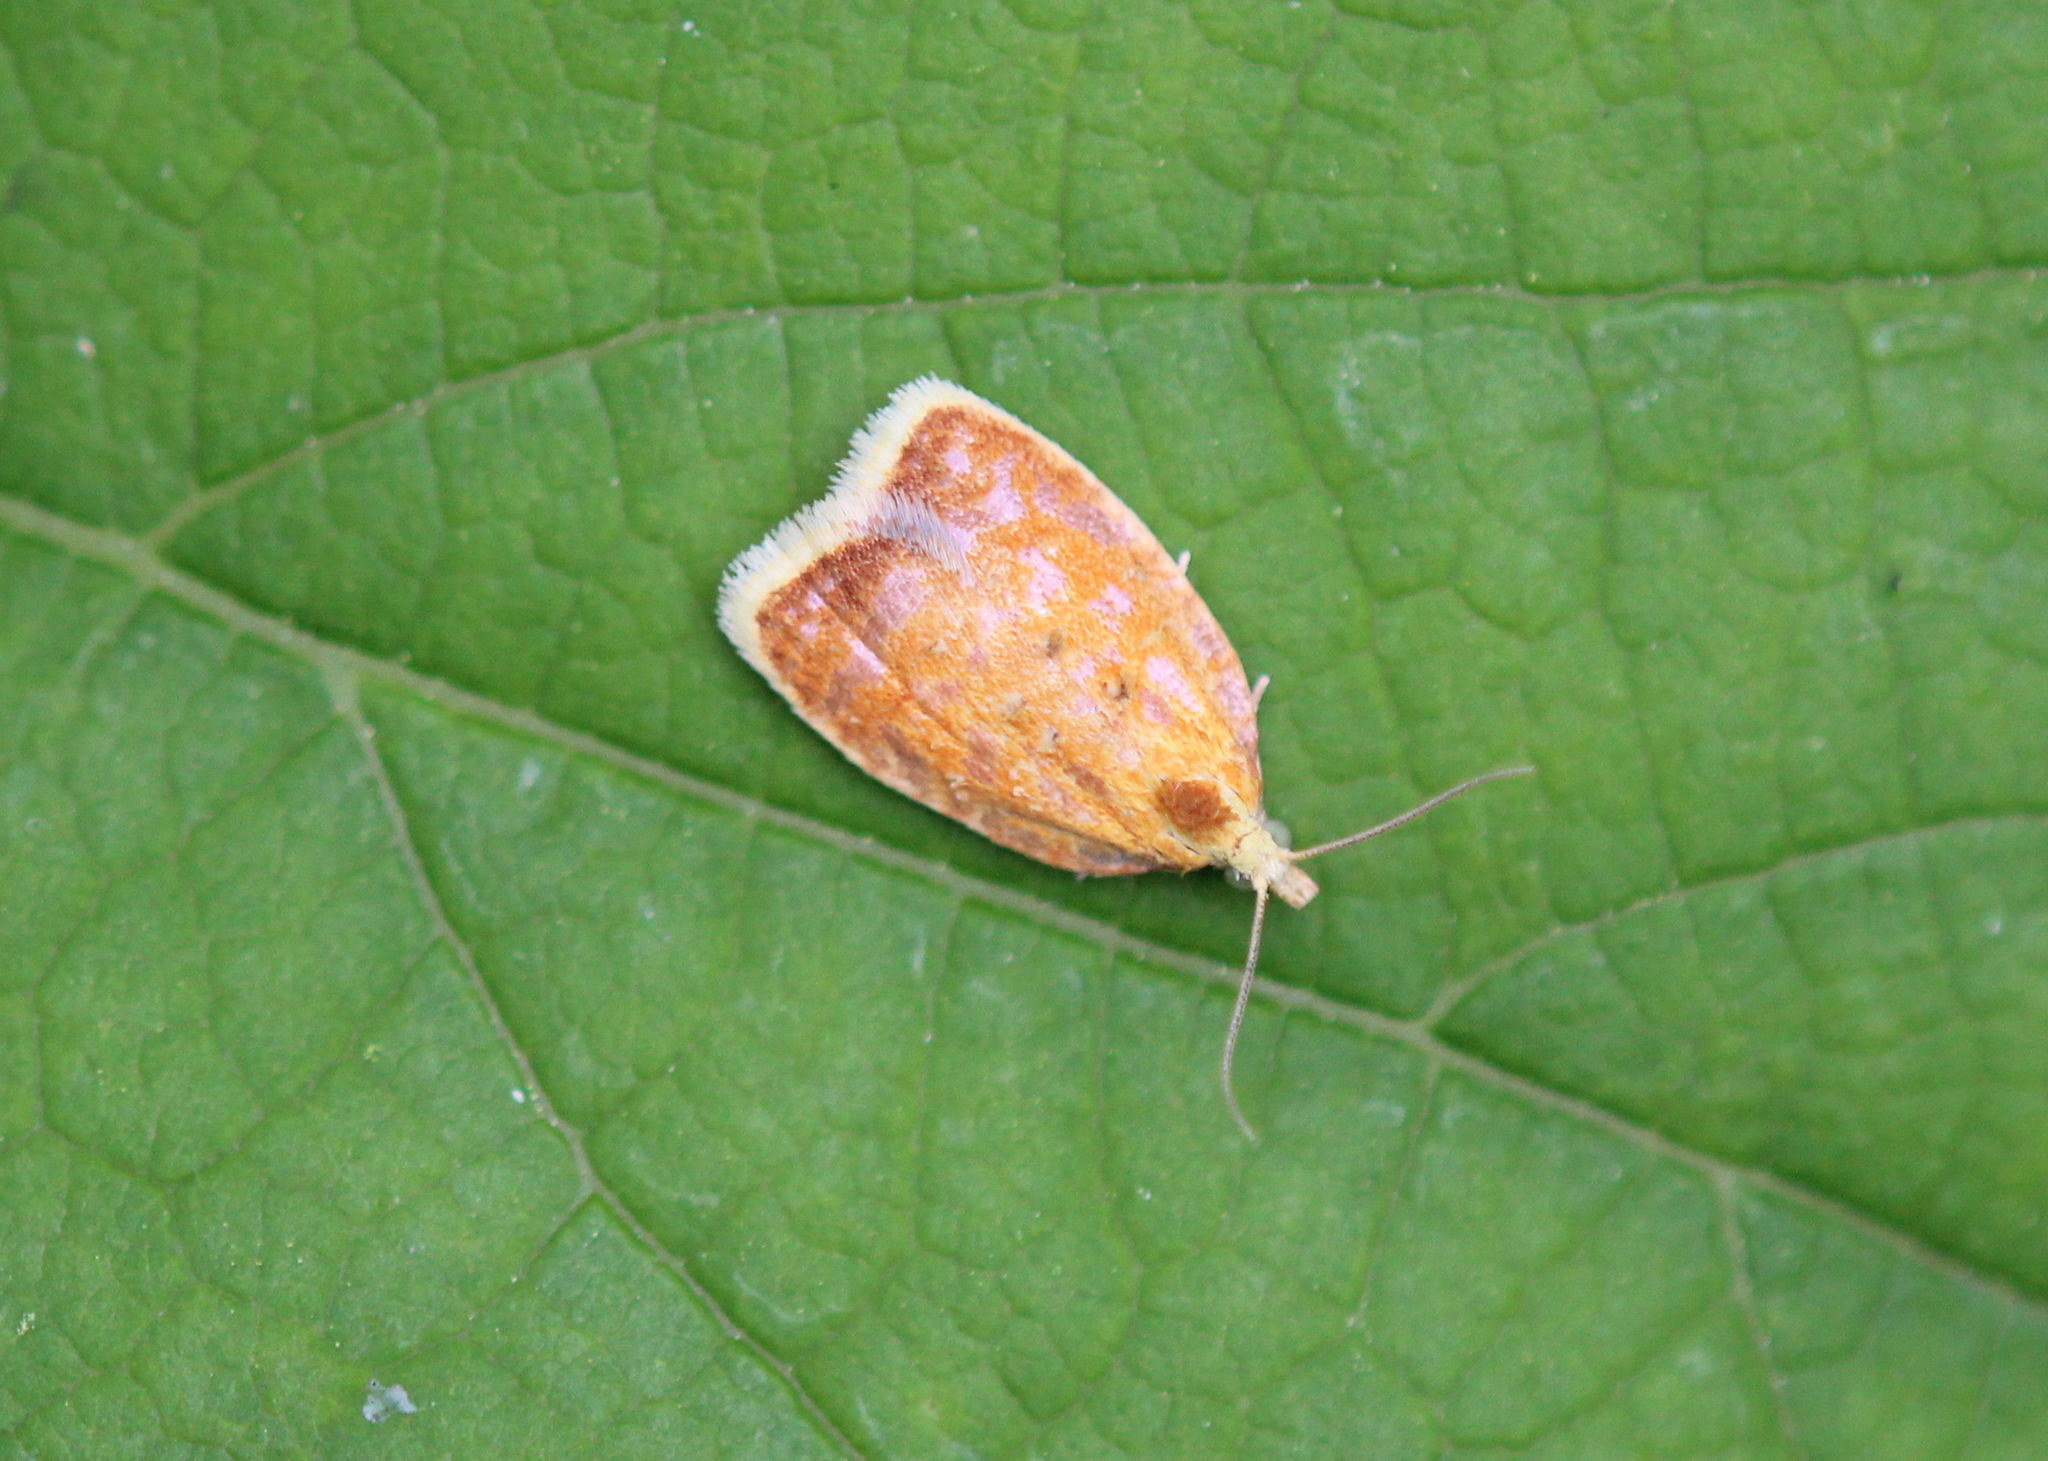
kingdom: Animalia
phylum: Arthropoda
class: Insecta
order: Lepidoptera
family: Tortricidae
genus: Acleris
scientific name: Acleris curvalana
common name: Blueberry leaftier moth
